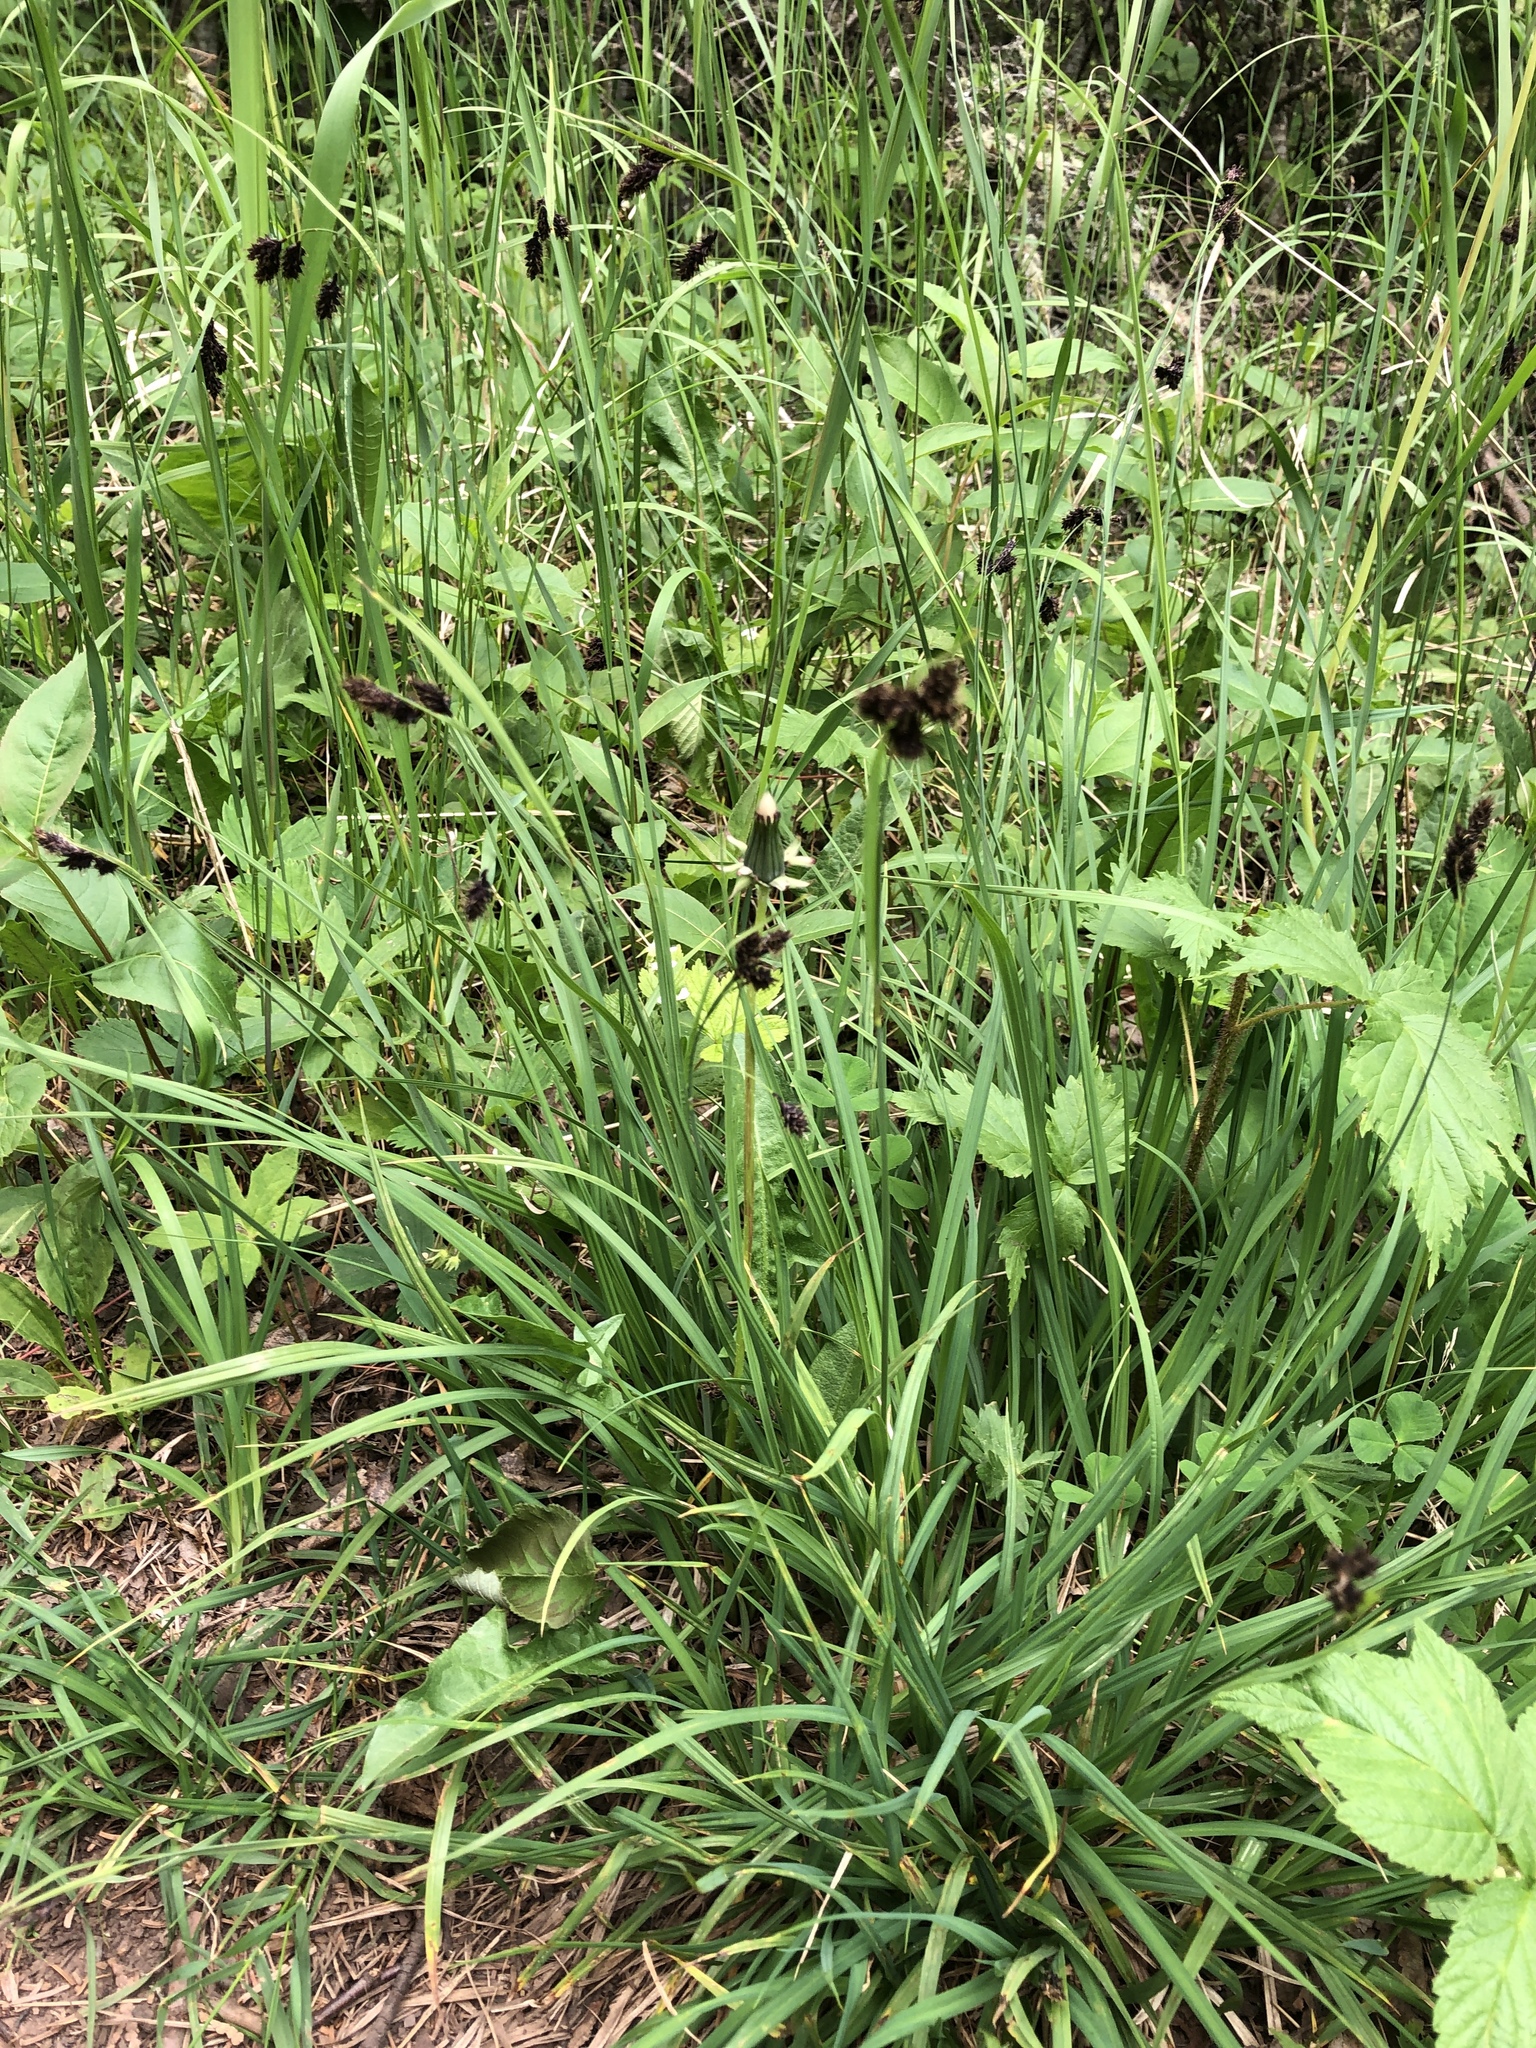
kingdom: Plantae
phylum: Tracheophyta
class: Liliopsida
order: Poales
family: Cyperaceae
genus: Carex
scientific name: Carex atratiformis
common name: Black sedge
